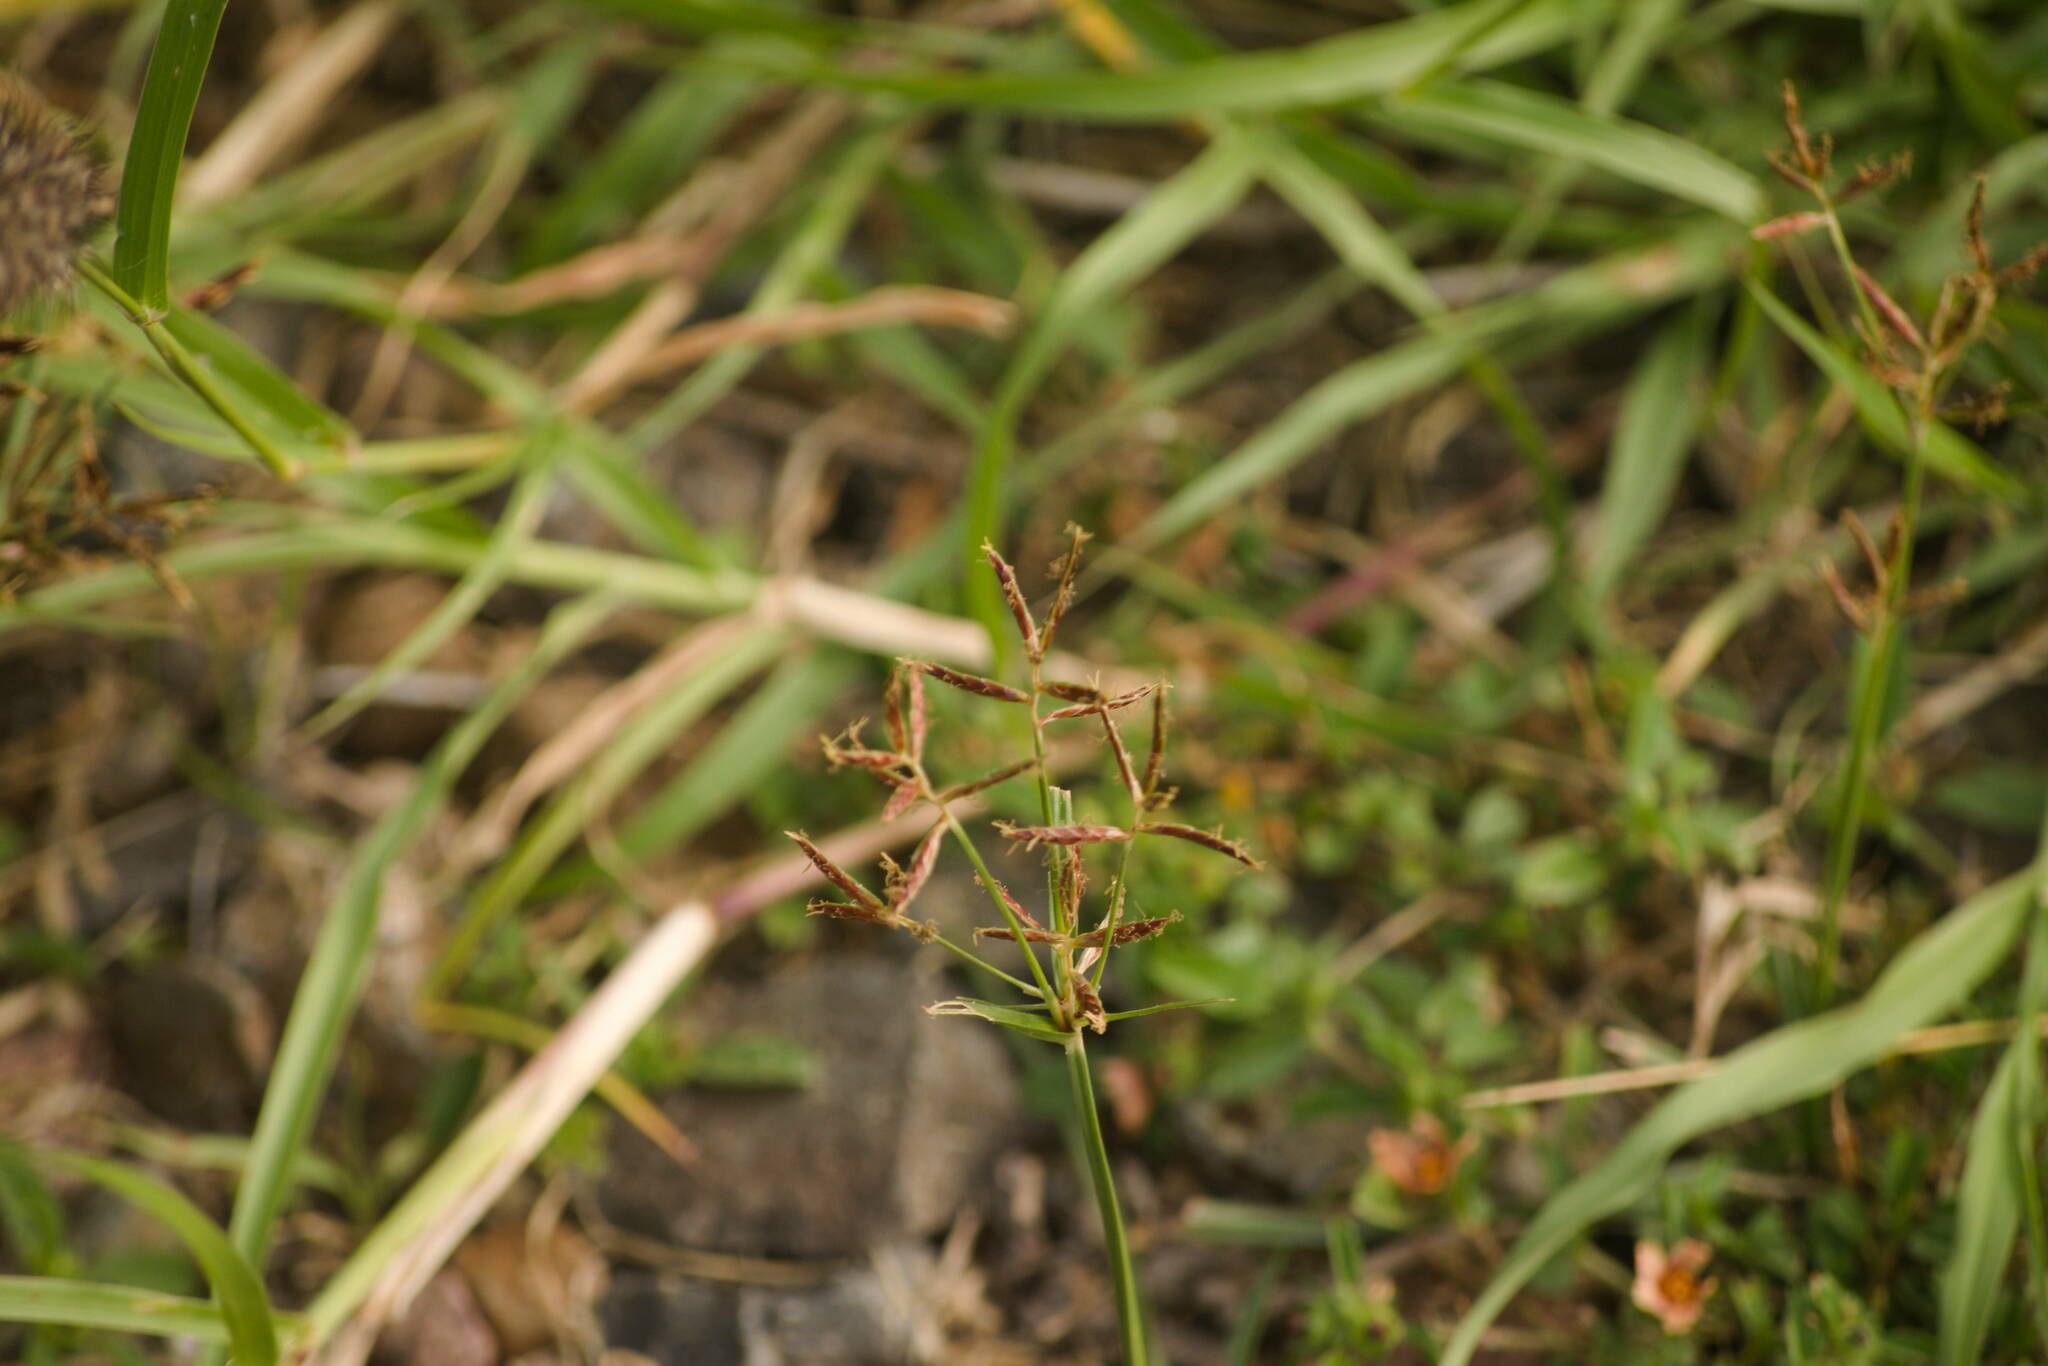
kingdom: Plantae
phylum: Tracheophyta
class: Liliopsida
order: Poales
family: Cyperaceae
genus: Cyperus
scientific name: Cyperus rotundus
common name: Nutgrass
